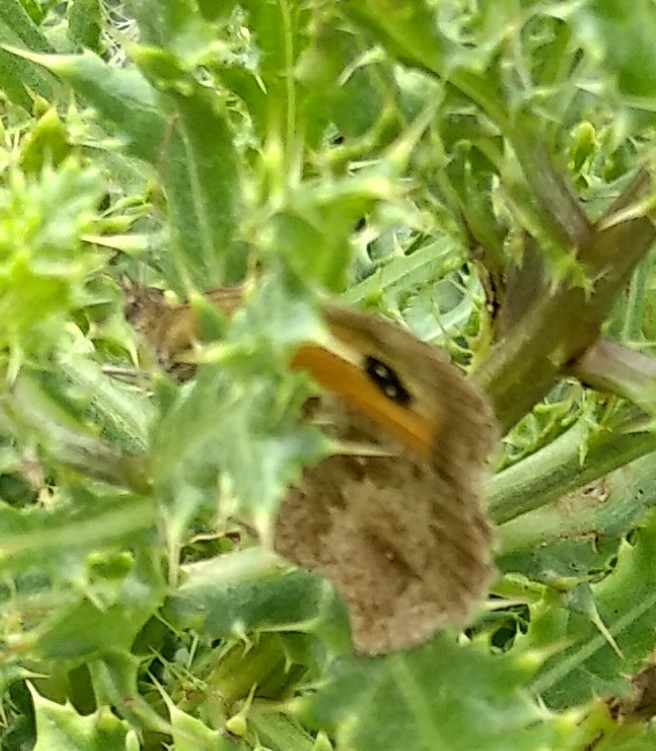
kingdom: Animalia
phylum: Arthropoda
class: Insecta
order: Lepidoptera
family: Nymphalidae
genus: Pyronia
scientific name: Pyronia tithonus
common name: Gatekeeper
